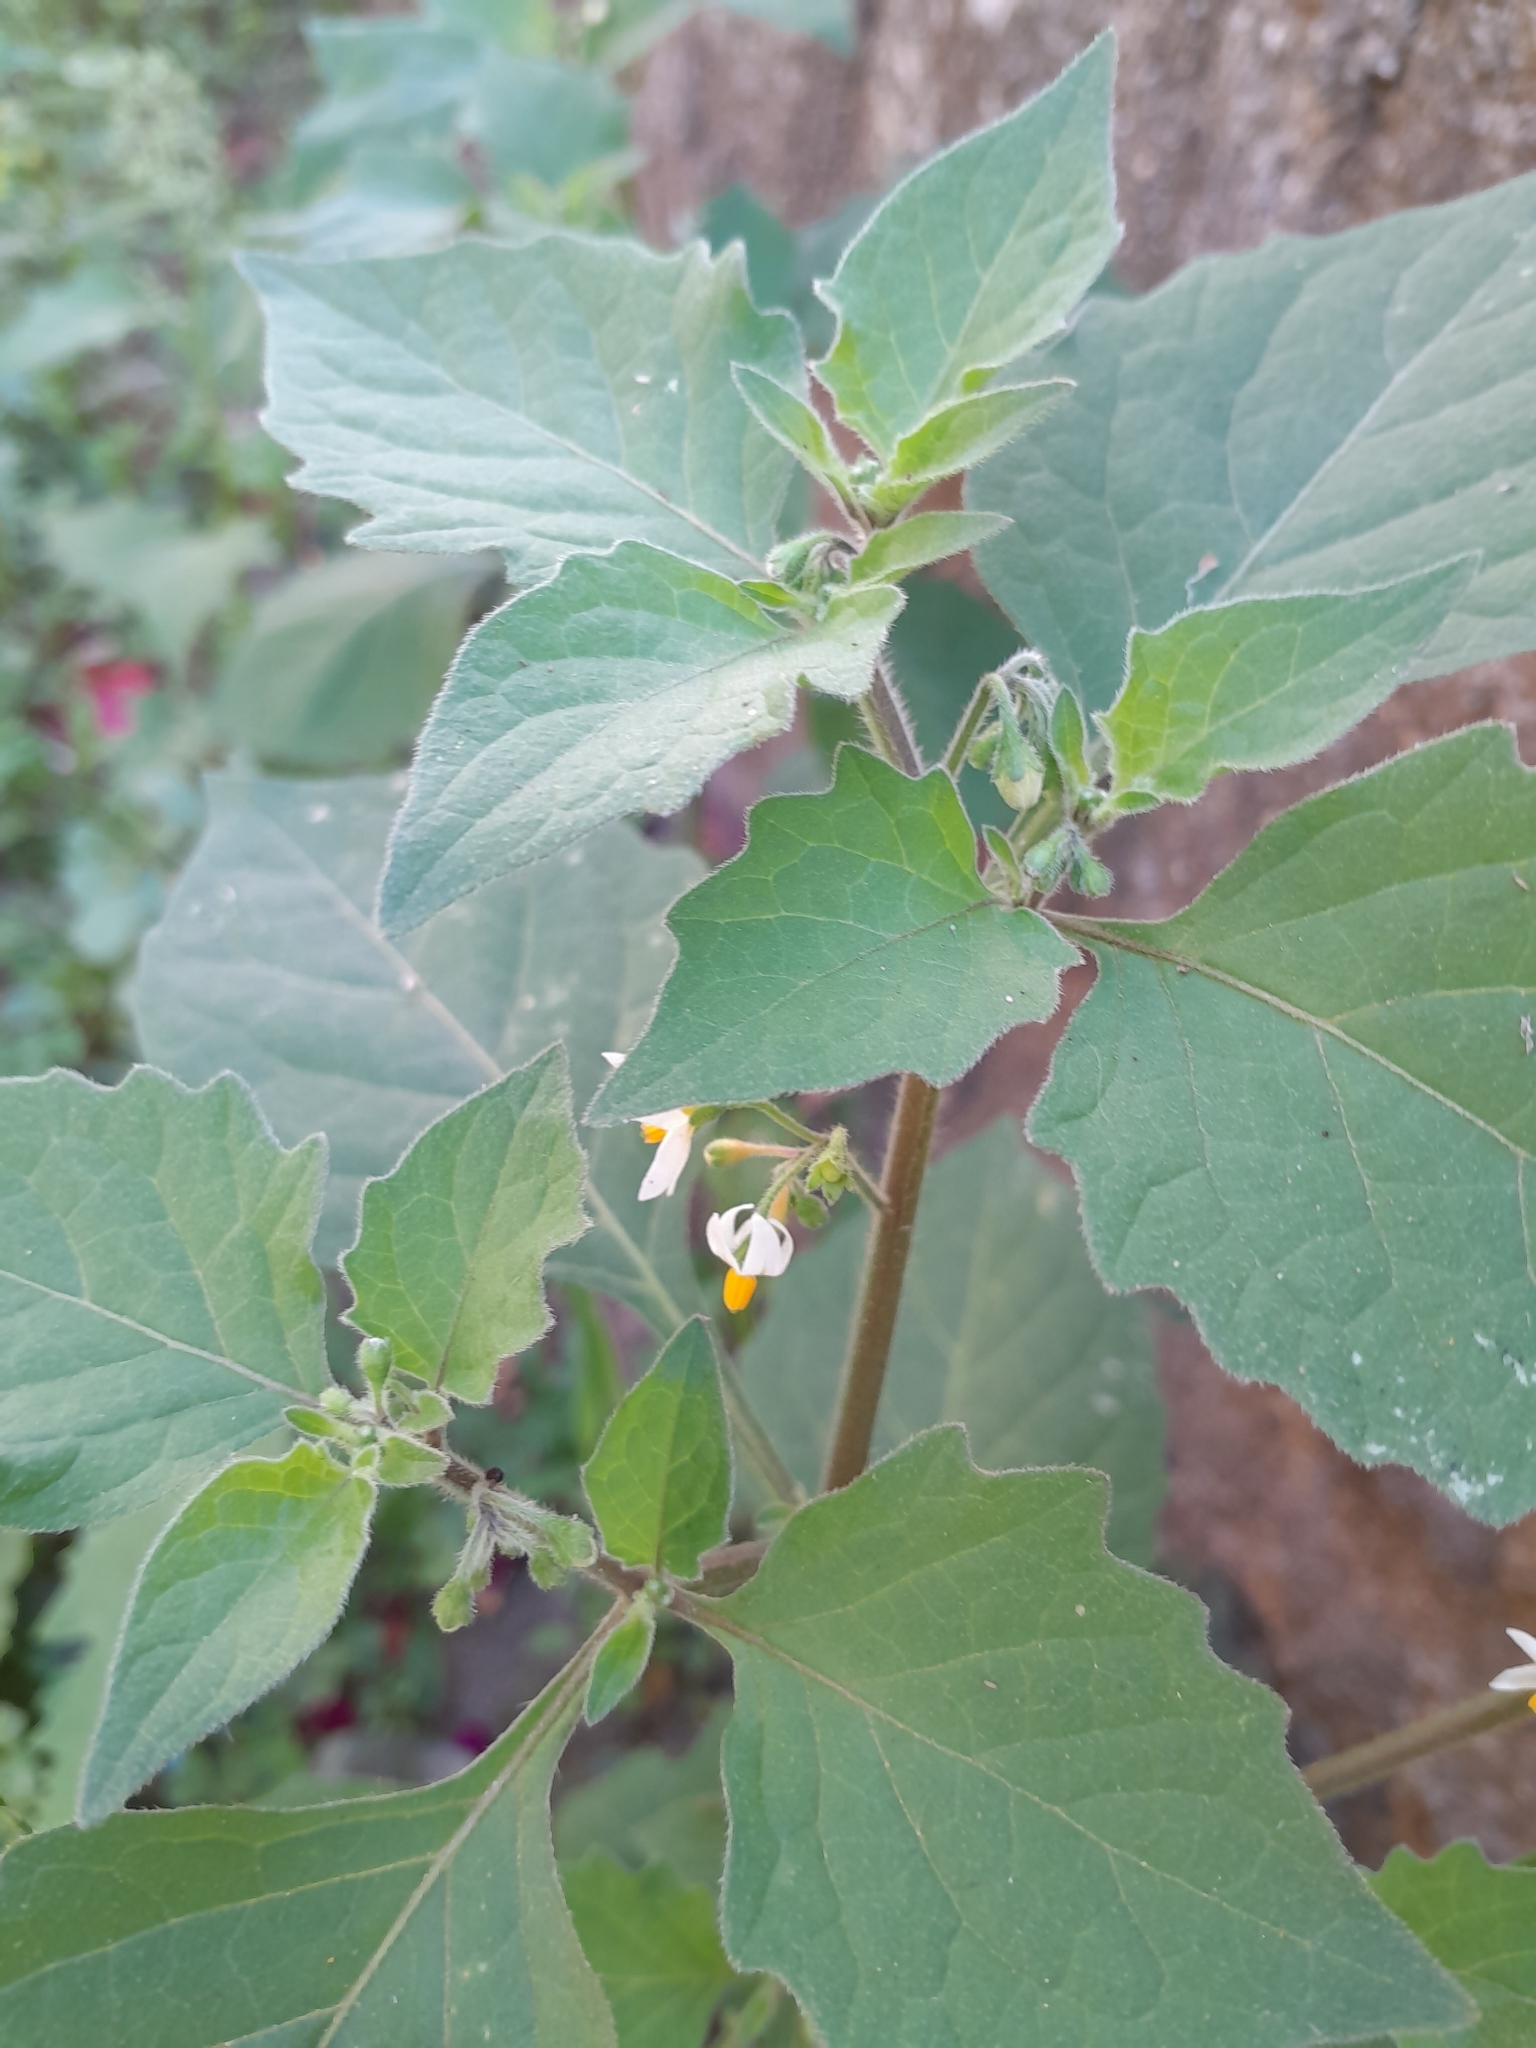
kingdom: Plantae
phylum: Tracheophyta
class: Magnoliopsida
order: Solanales
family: Solanaceae
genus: Solanum
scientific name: Solanum nigrum
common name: Black nightshade
